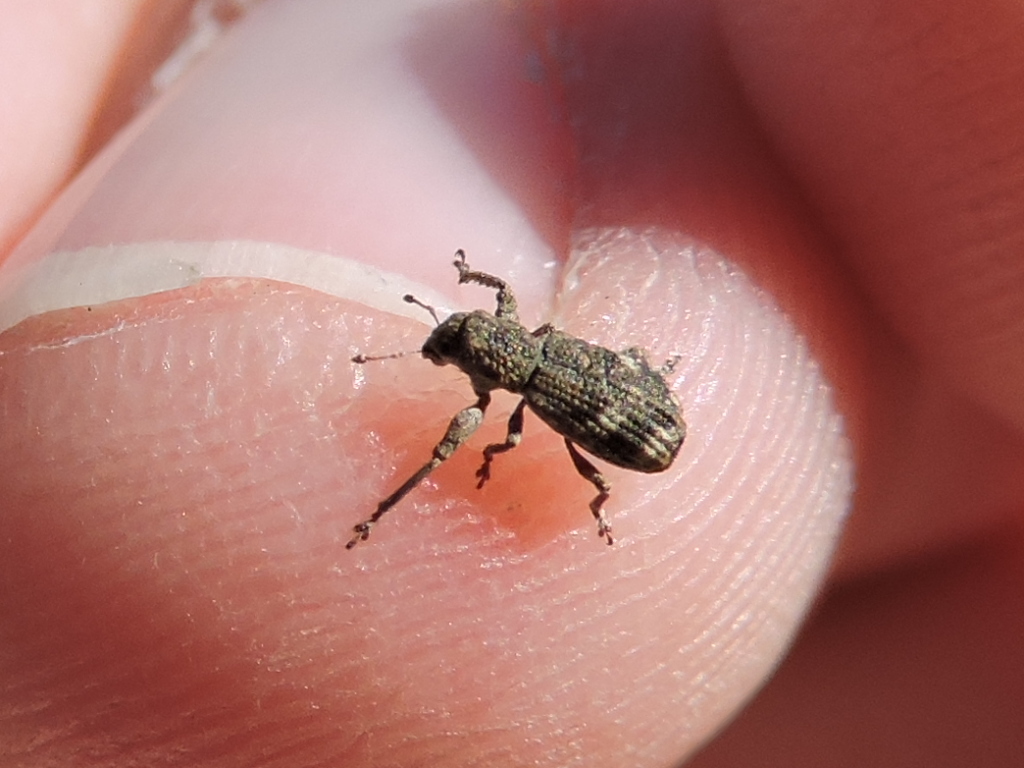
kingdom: Animalia
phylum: Arthropoda
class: Insecta
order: Coleoptera
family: Curculionidae
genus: Pandeleteius
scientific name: Pandeleteius cinereus
